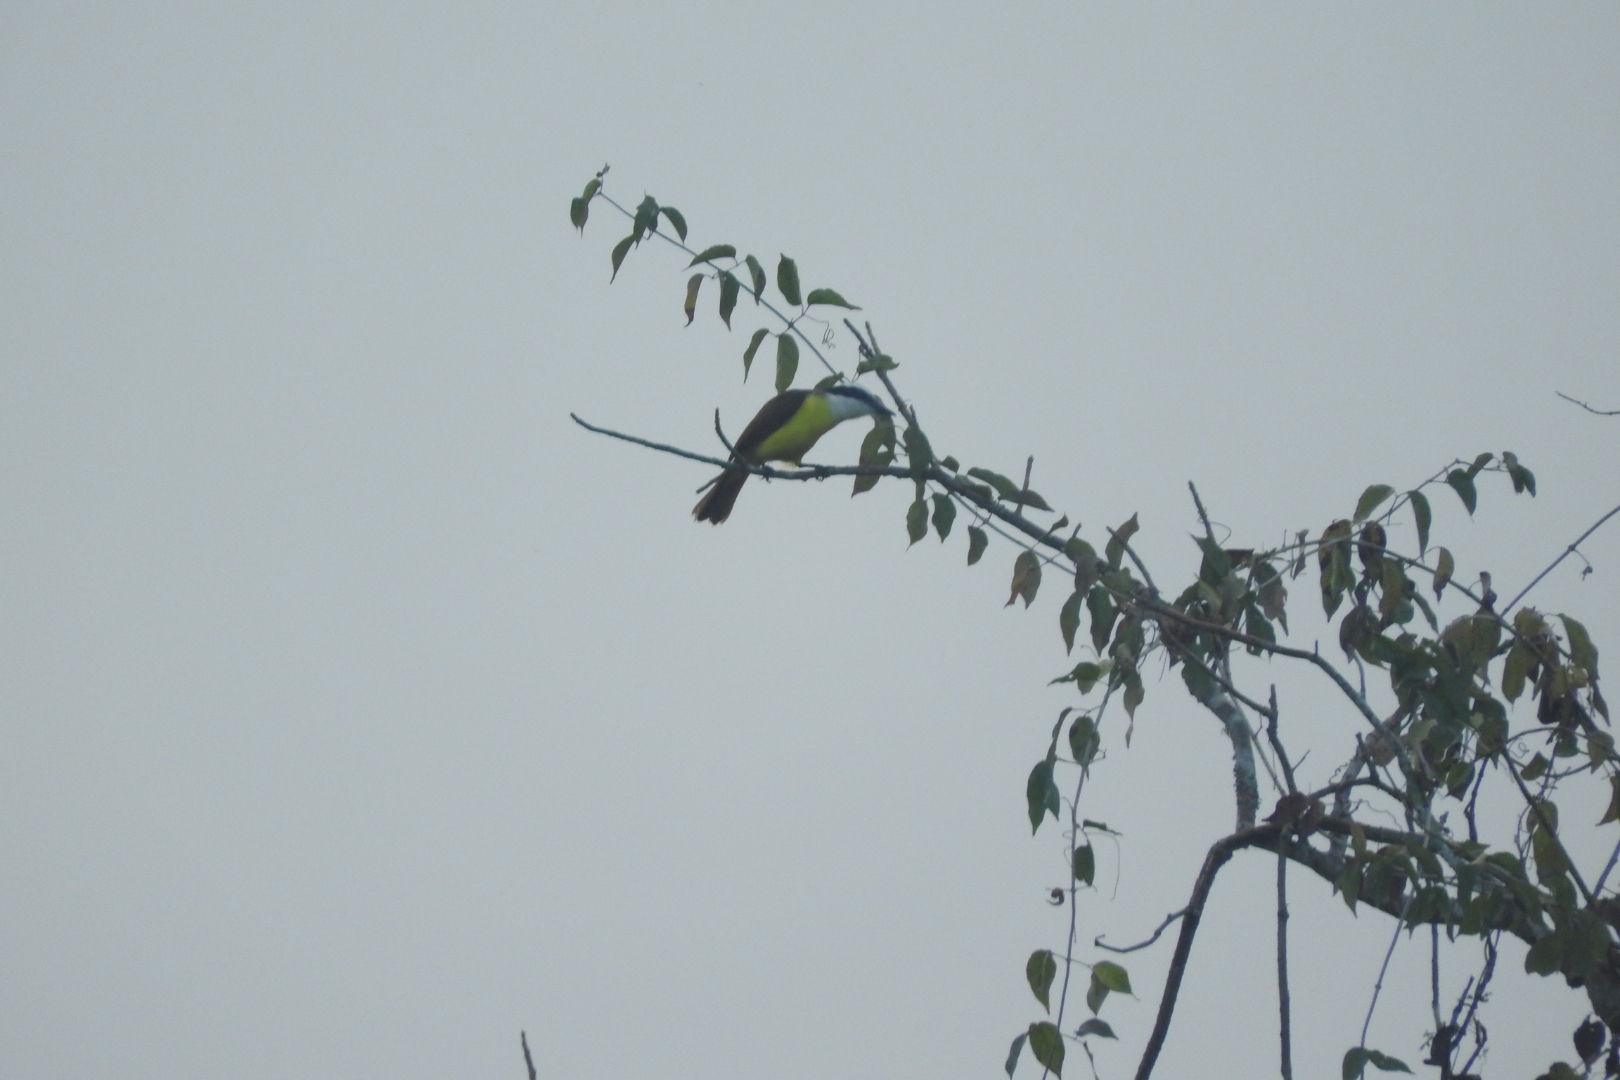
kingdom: Animalia
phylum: Chordata
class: Aves
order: Passeriformes
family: Tyrannidae
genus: Pitangus
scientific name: Pitangus sulphuratus
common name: Great kiskadee
